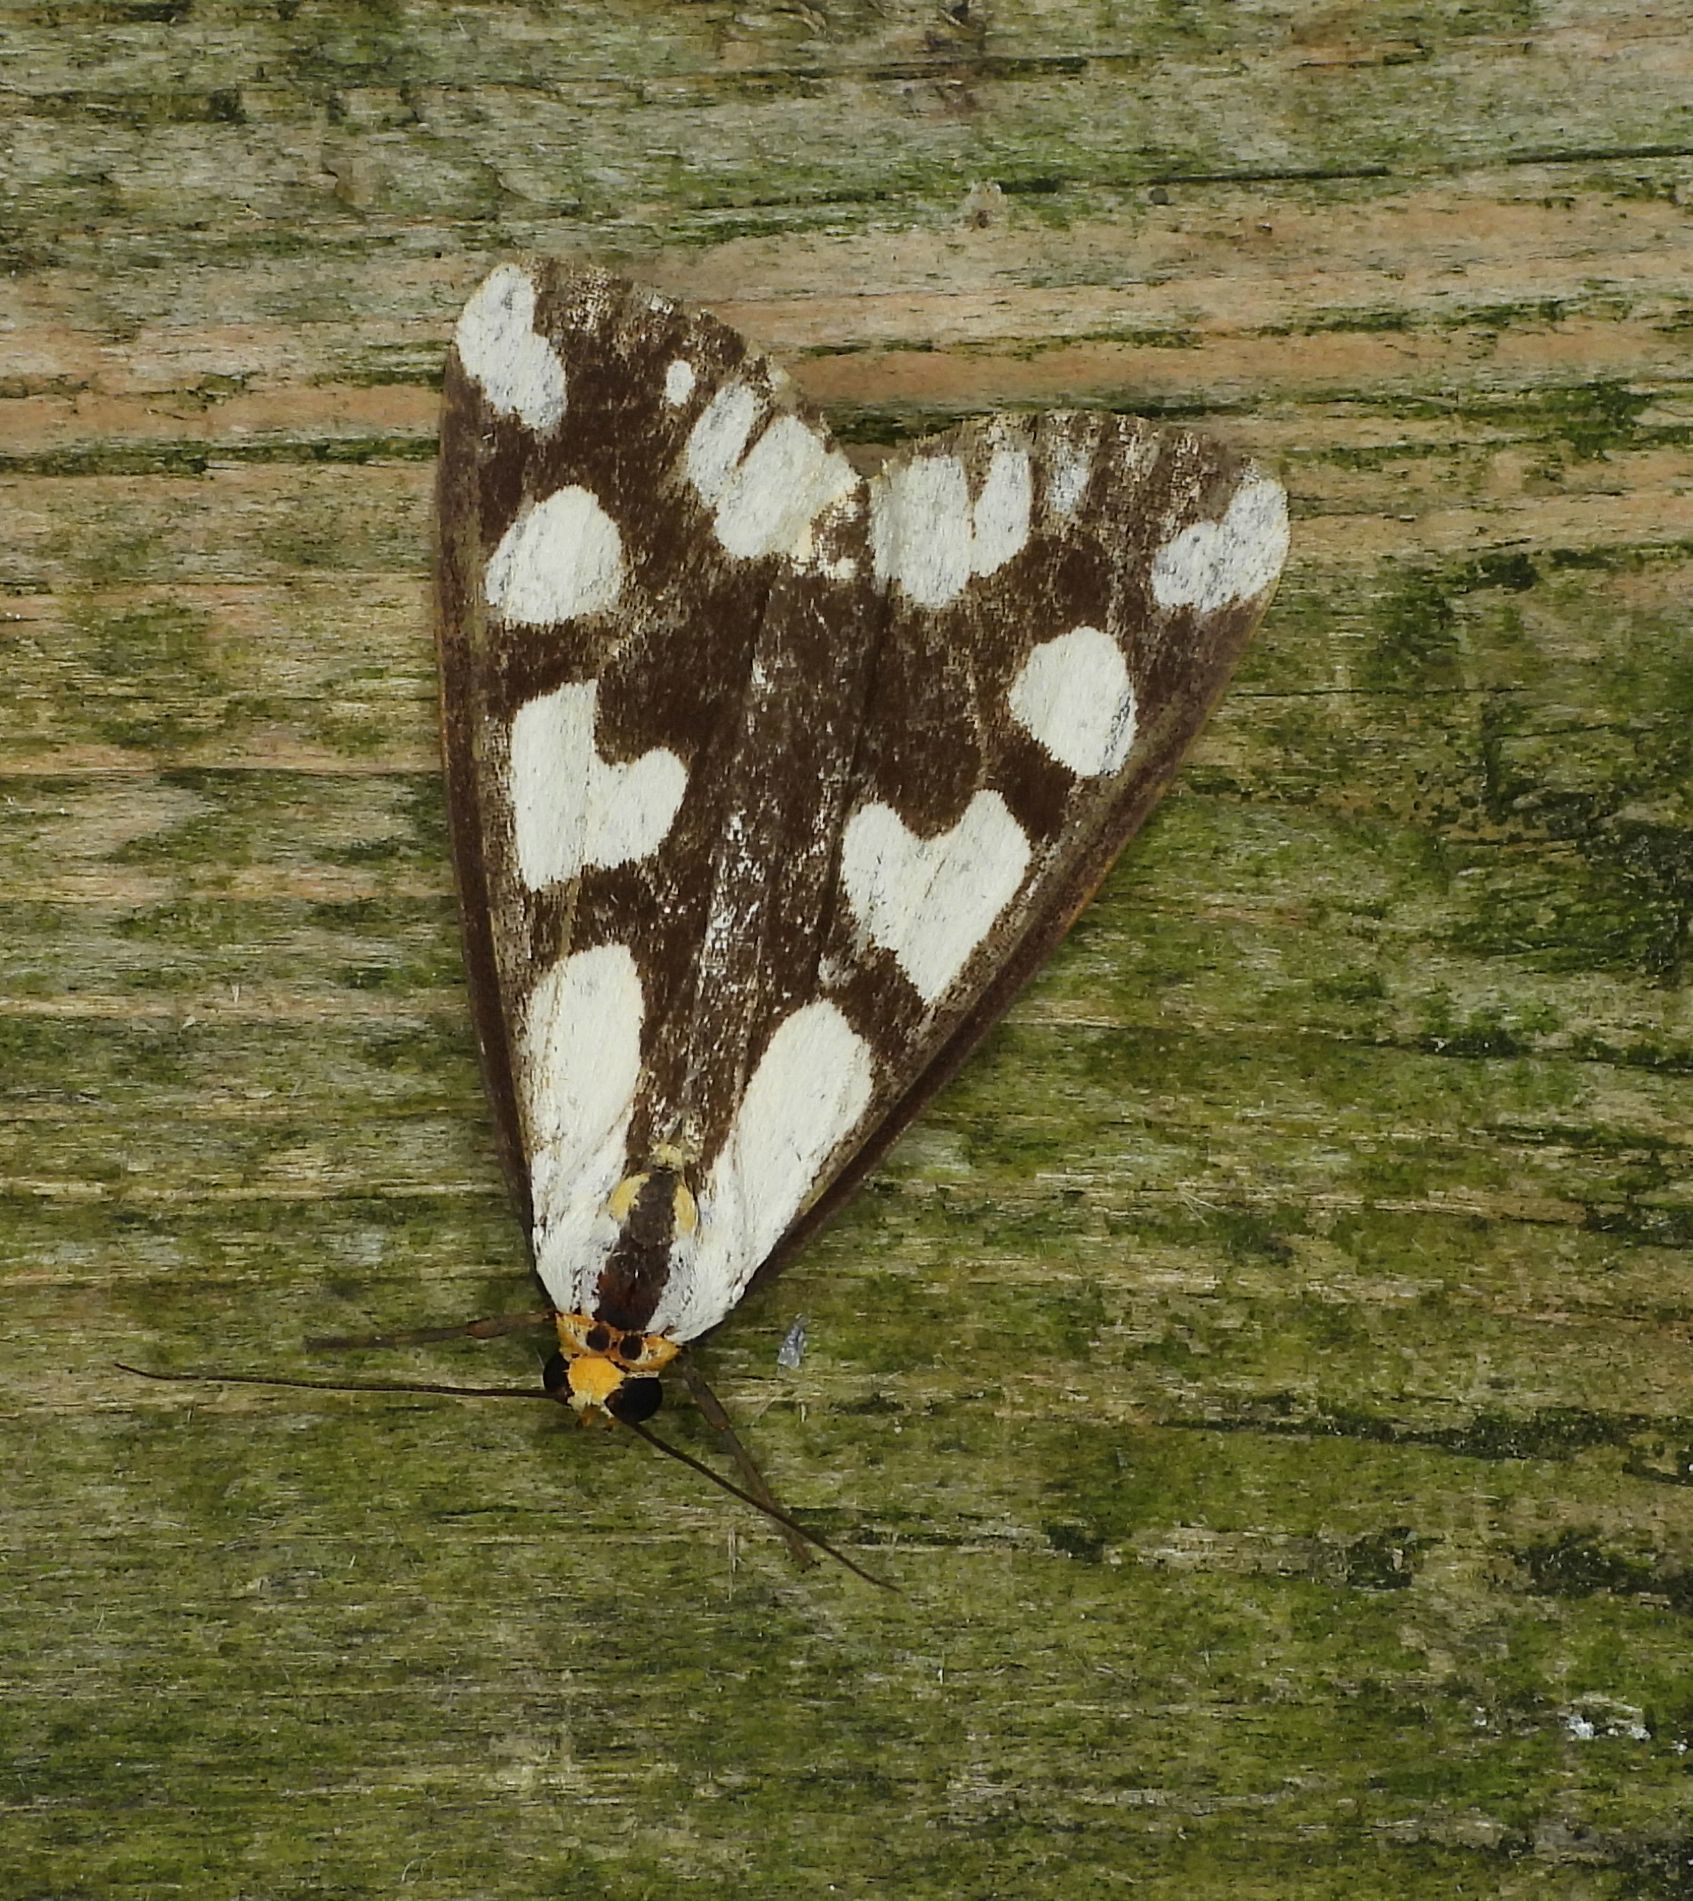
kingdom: Animalia
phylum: Arthropoda
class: Insecta
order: Lepidoptera
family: Erebidae
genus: Haploa
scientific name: Haploa confusa
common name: Confused haploa moth
